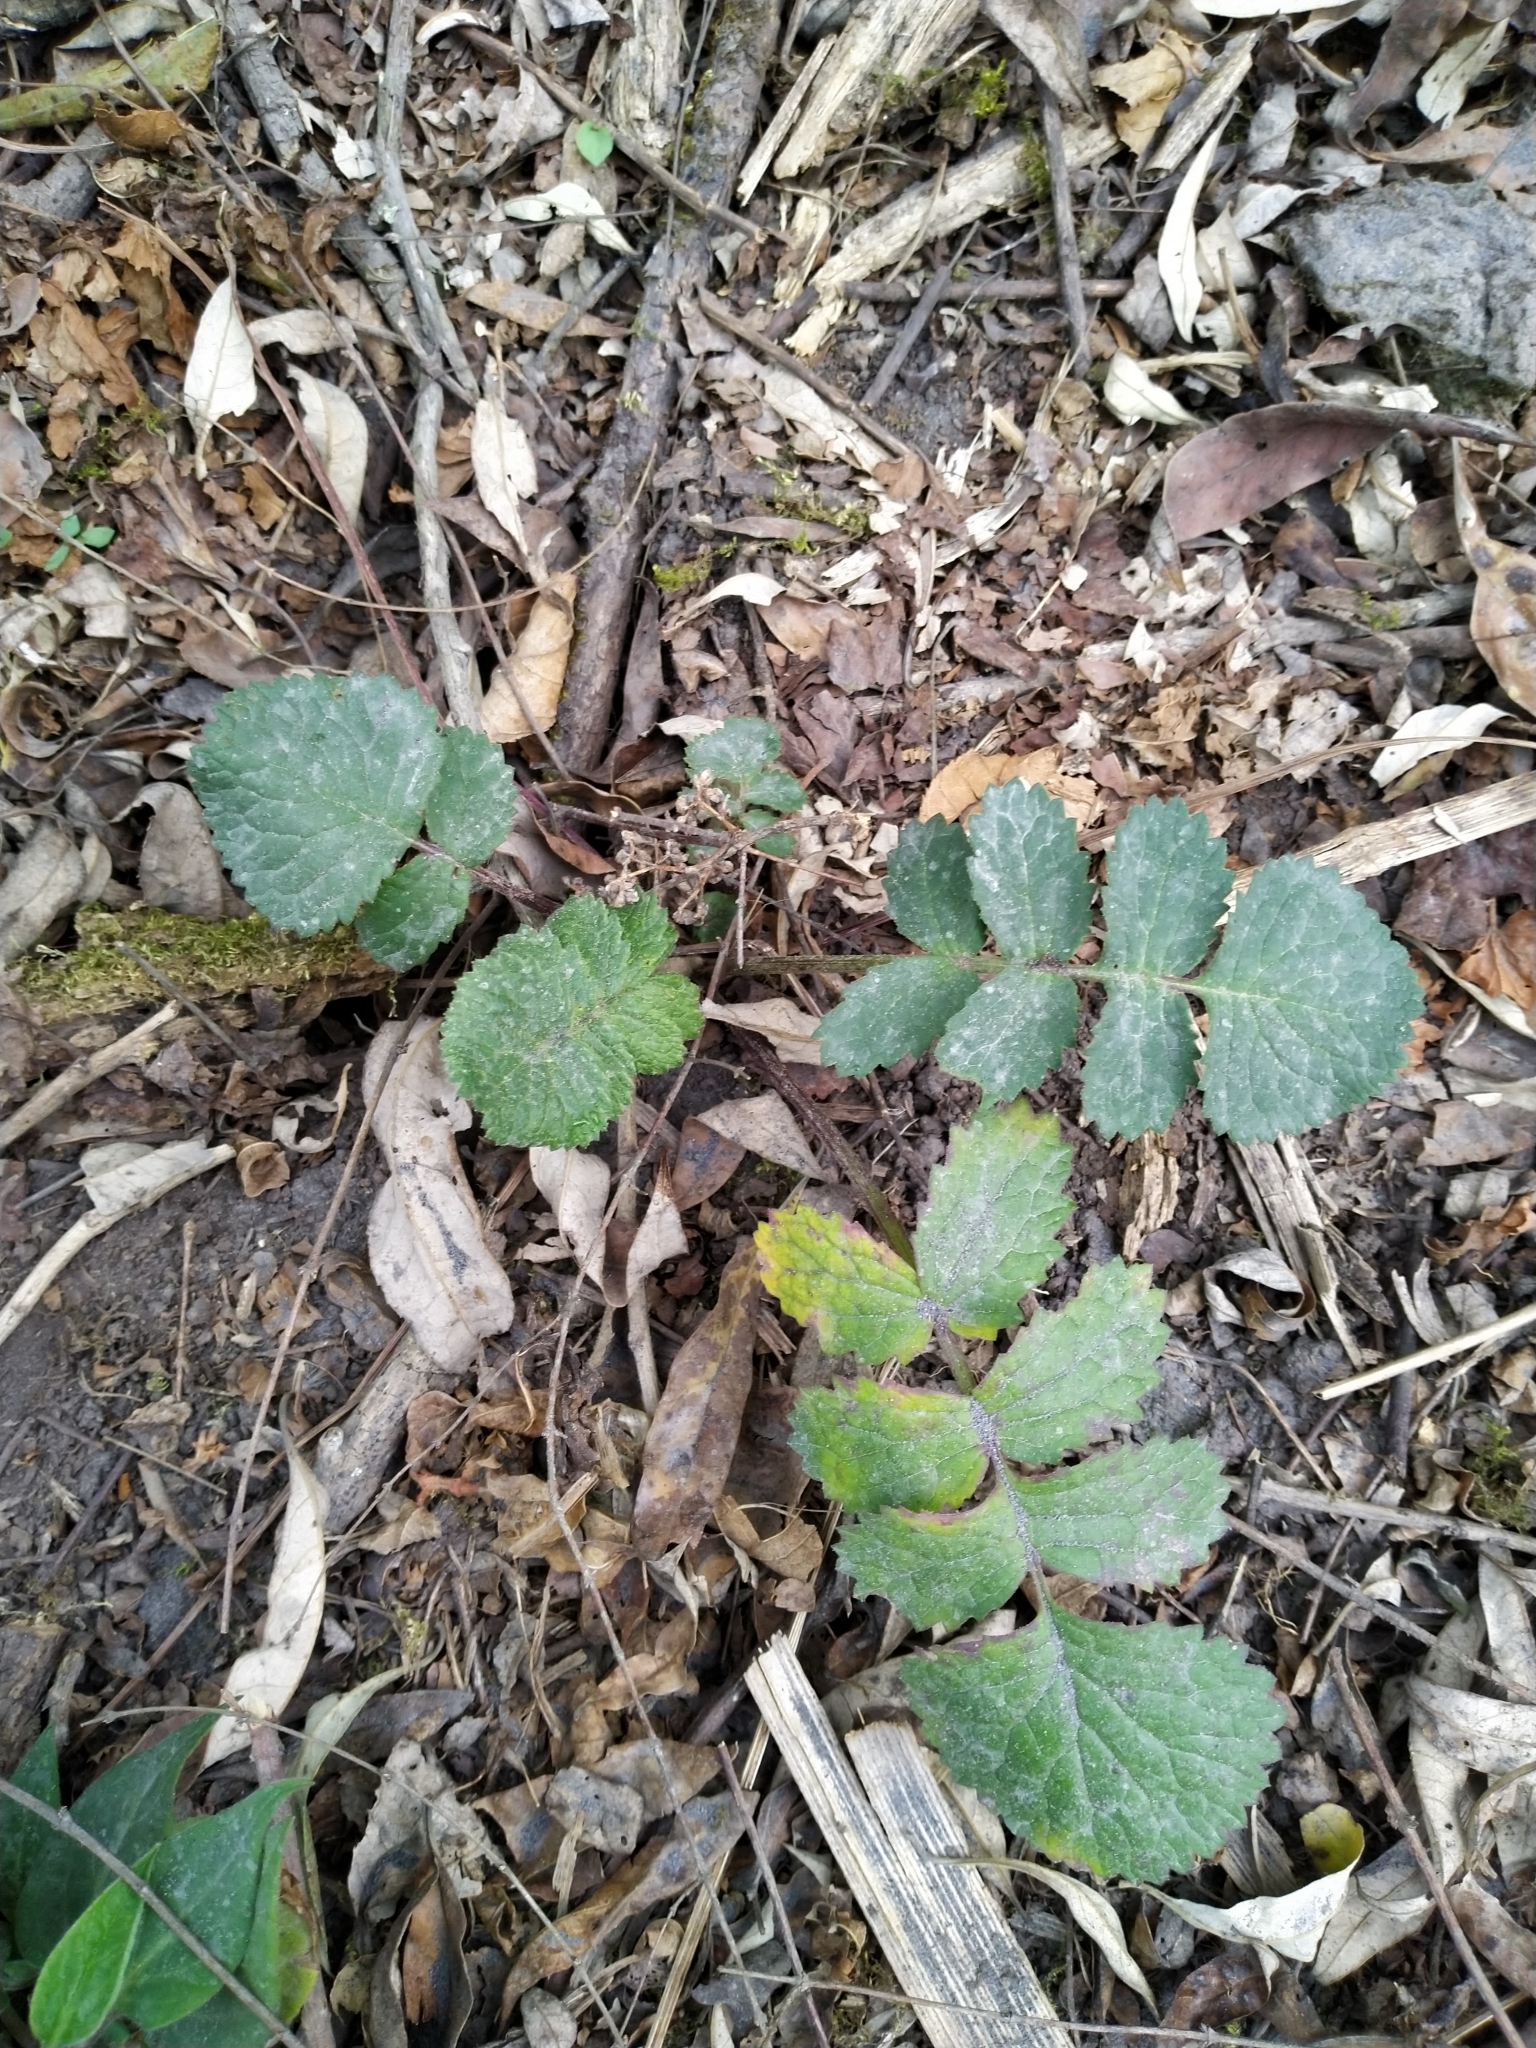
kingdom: Plantae
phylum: Tracheophyta
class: Magnoliopsida
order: Asterales
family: Asteraceae
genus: Packera
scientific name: Packera sanguisorbae
